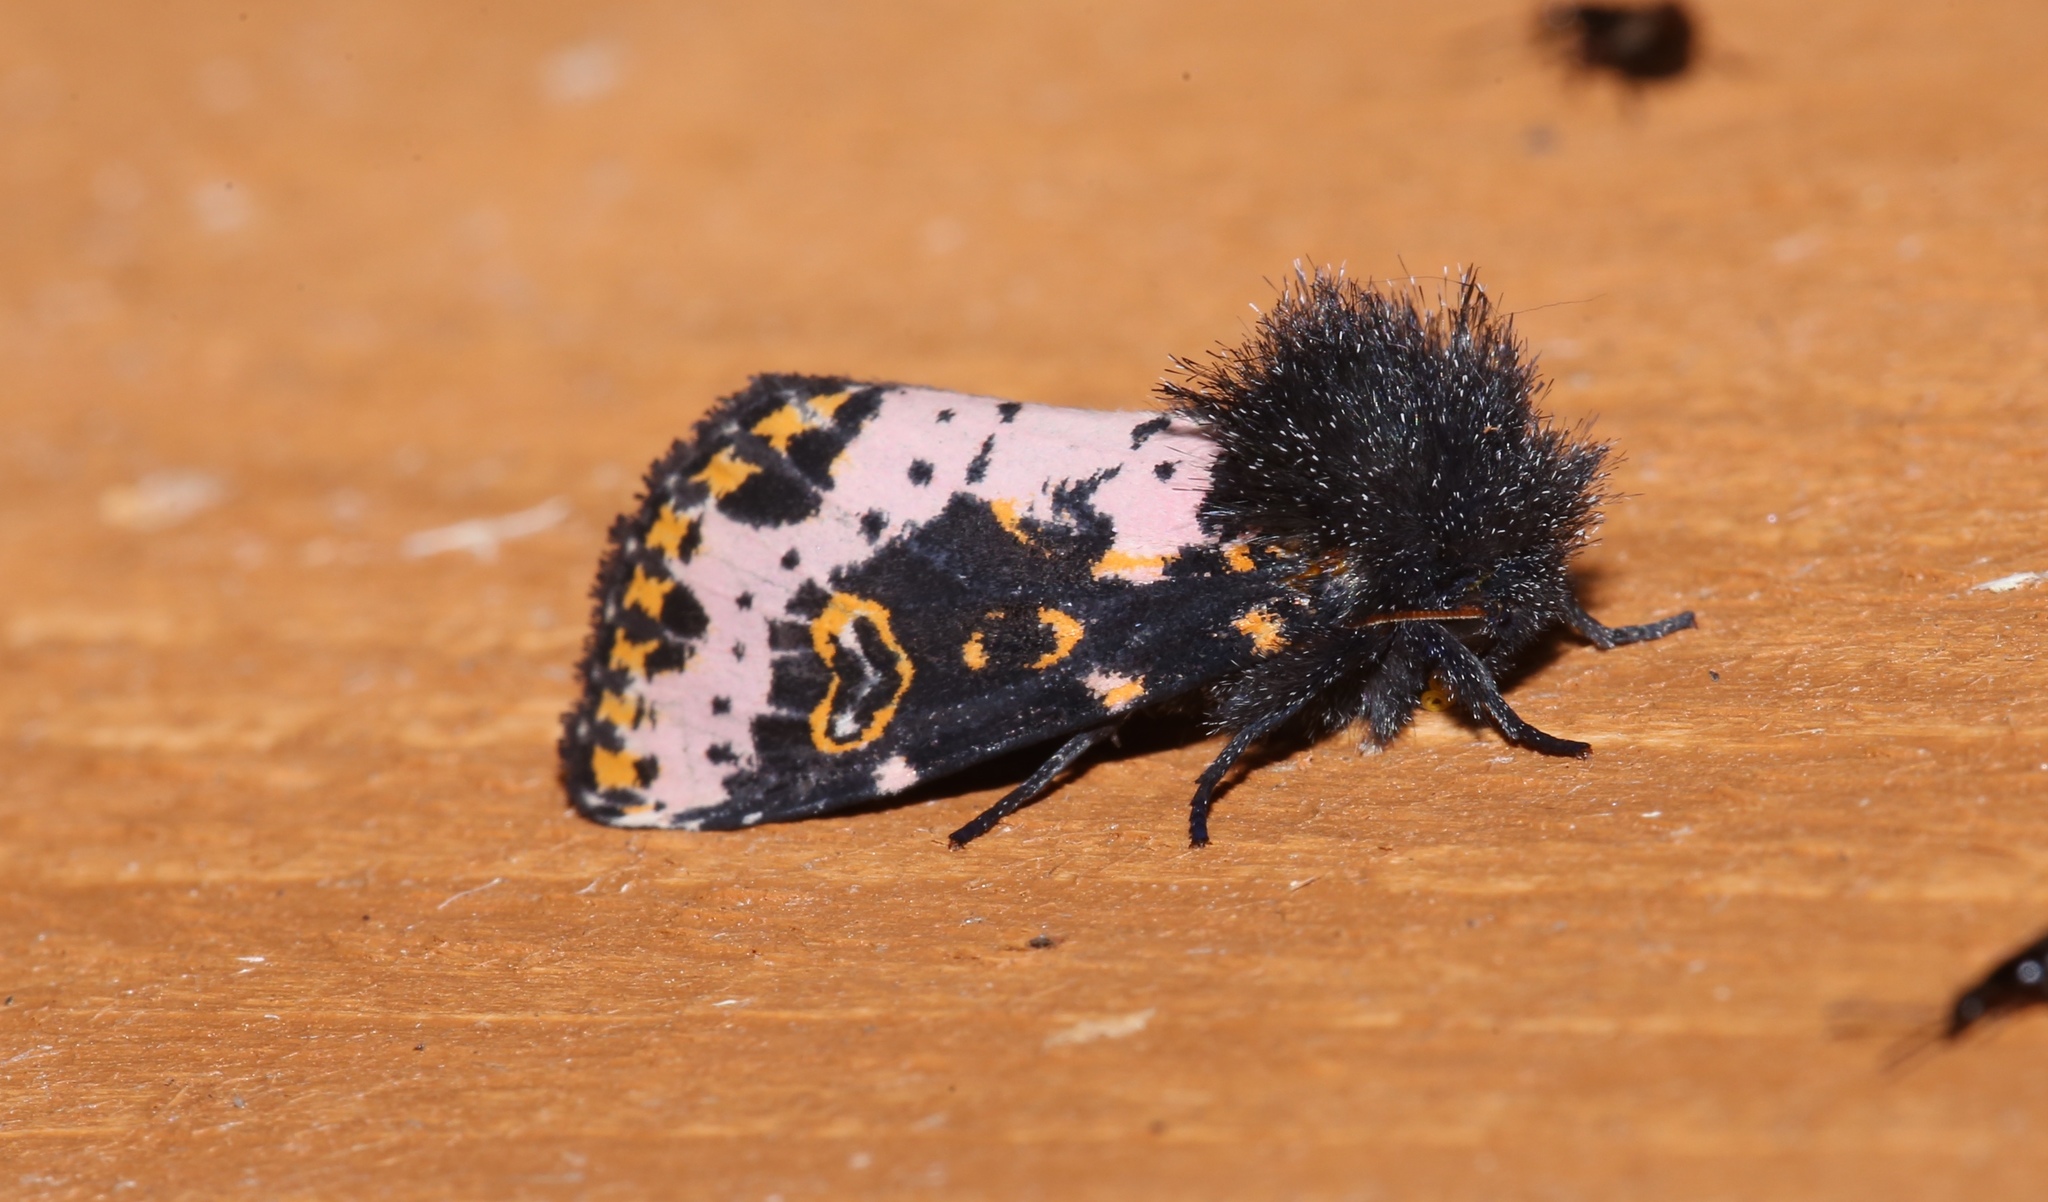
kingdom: Animalia
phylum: Arthropoda
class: Insecta
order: Lepidoptera
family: Noctuidae
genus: Xanthopastis
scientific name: Xanthopastis regnatrix
